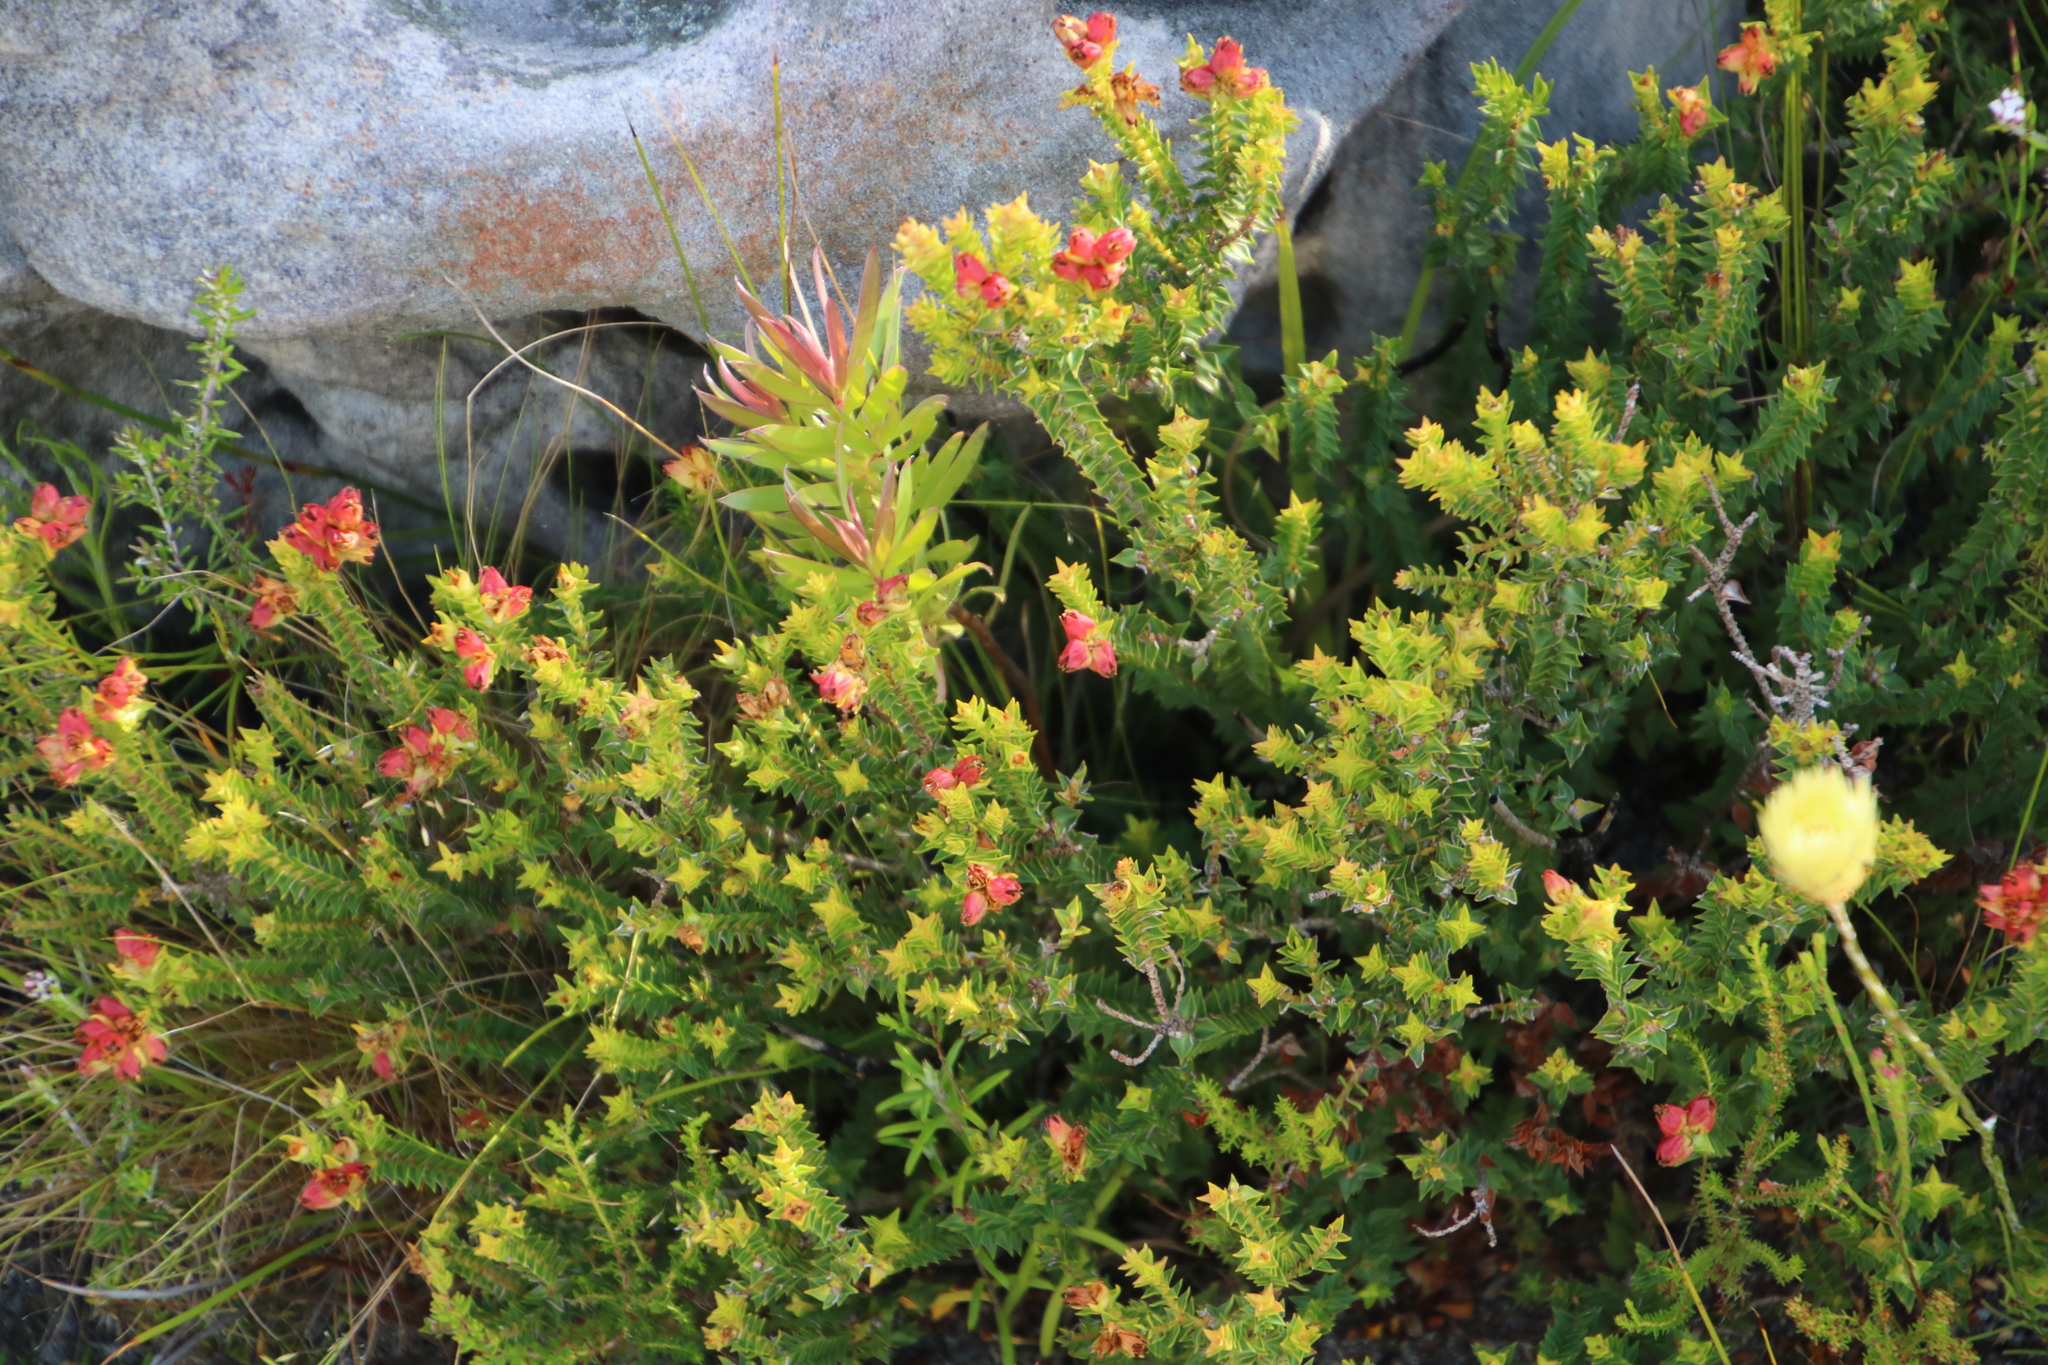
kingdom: Plantae
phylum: Tracheophyta
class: Magnoliopsida
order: Myrtales
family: Penaeaceae
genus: Penaea
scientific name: Penaea mucronata
